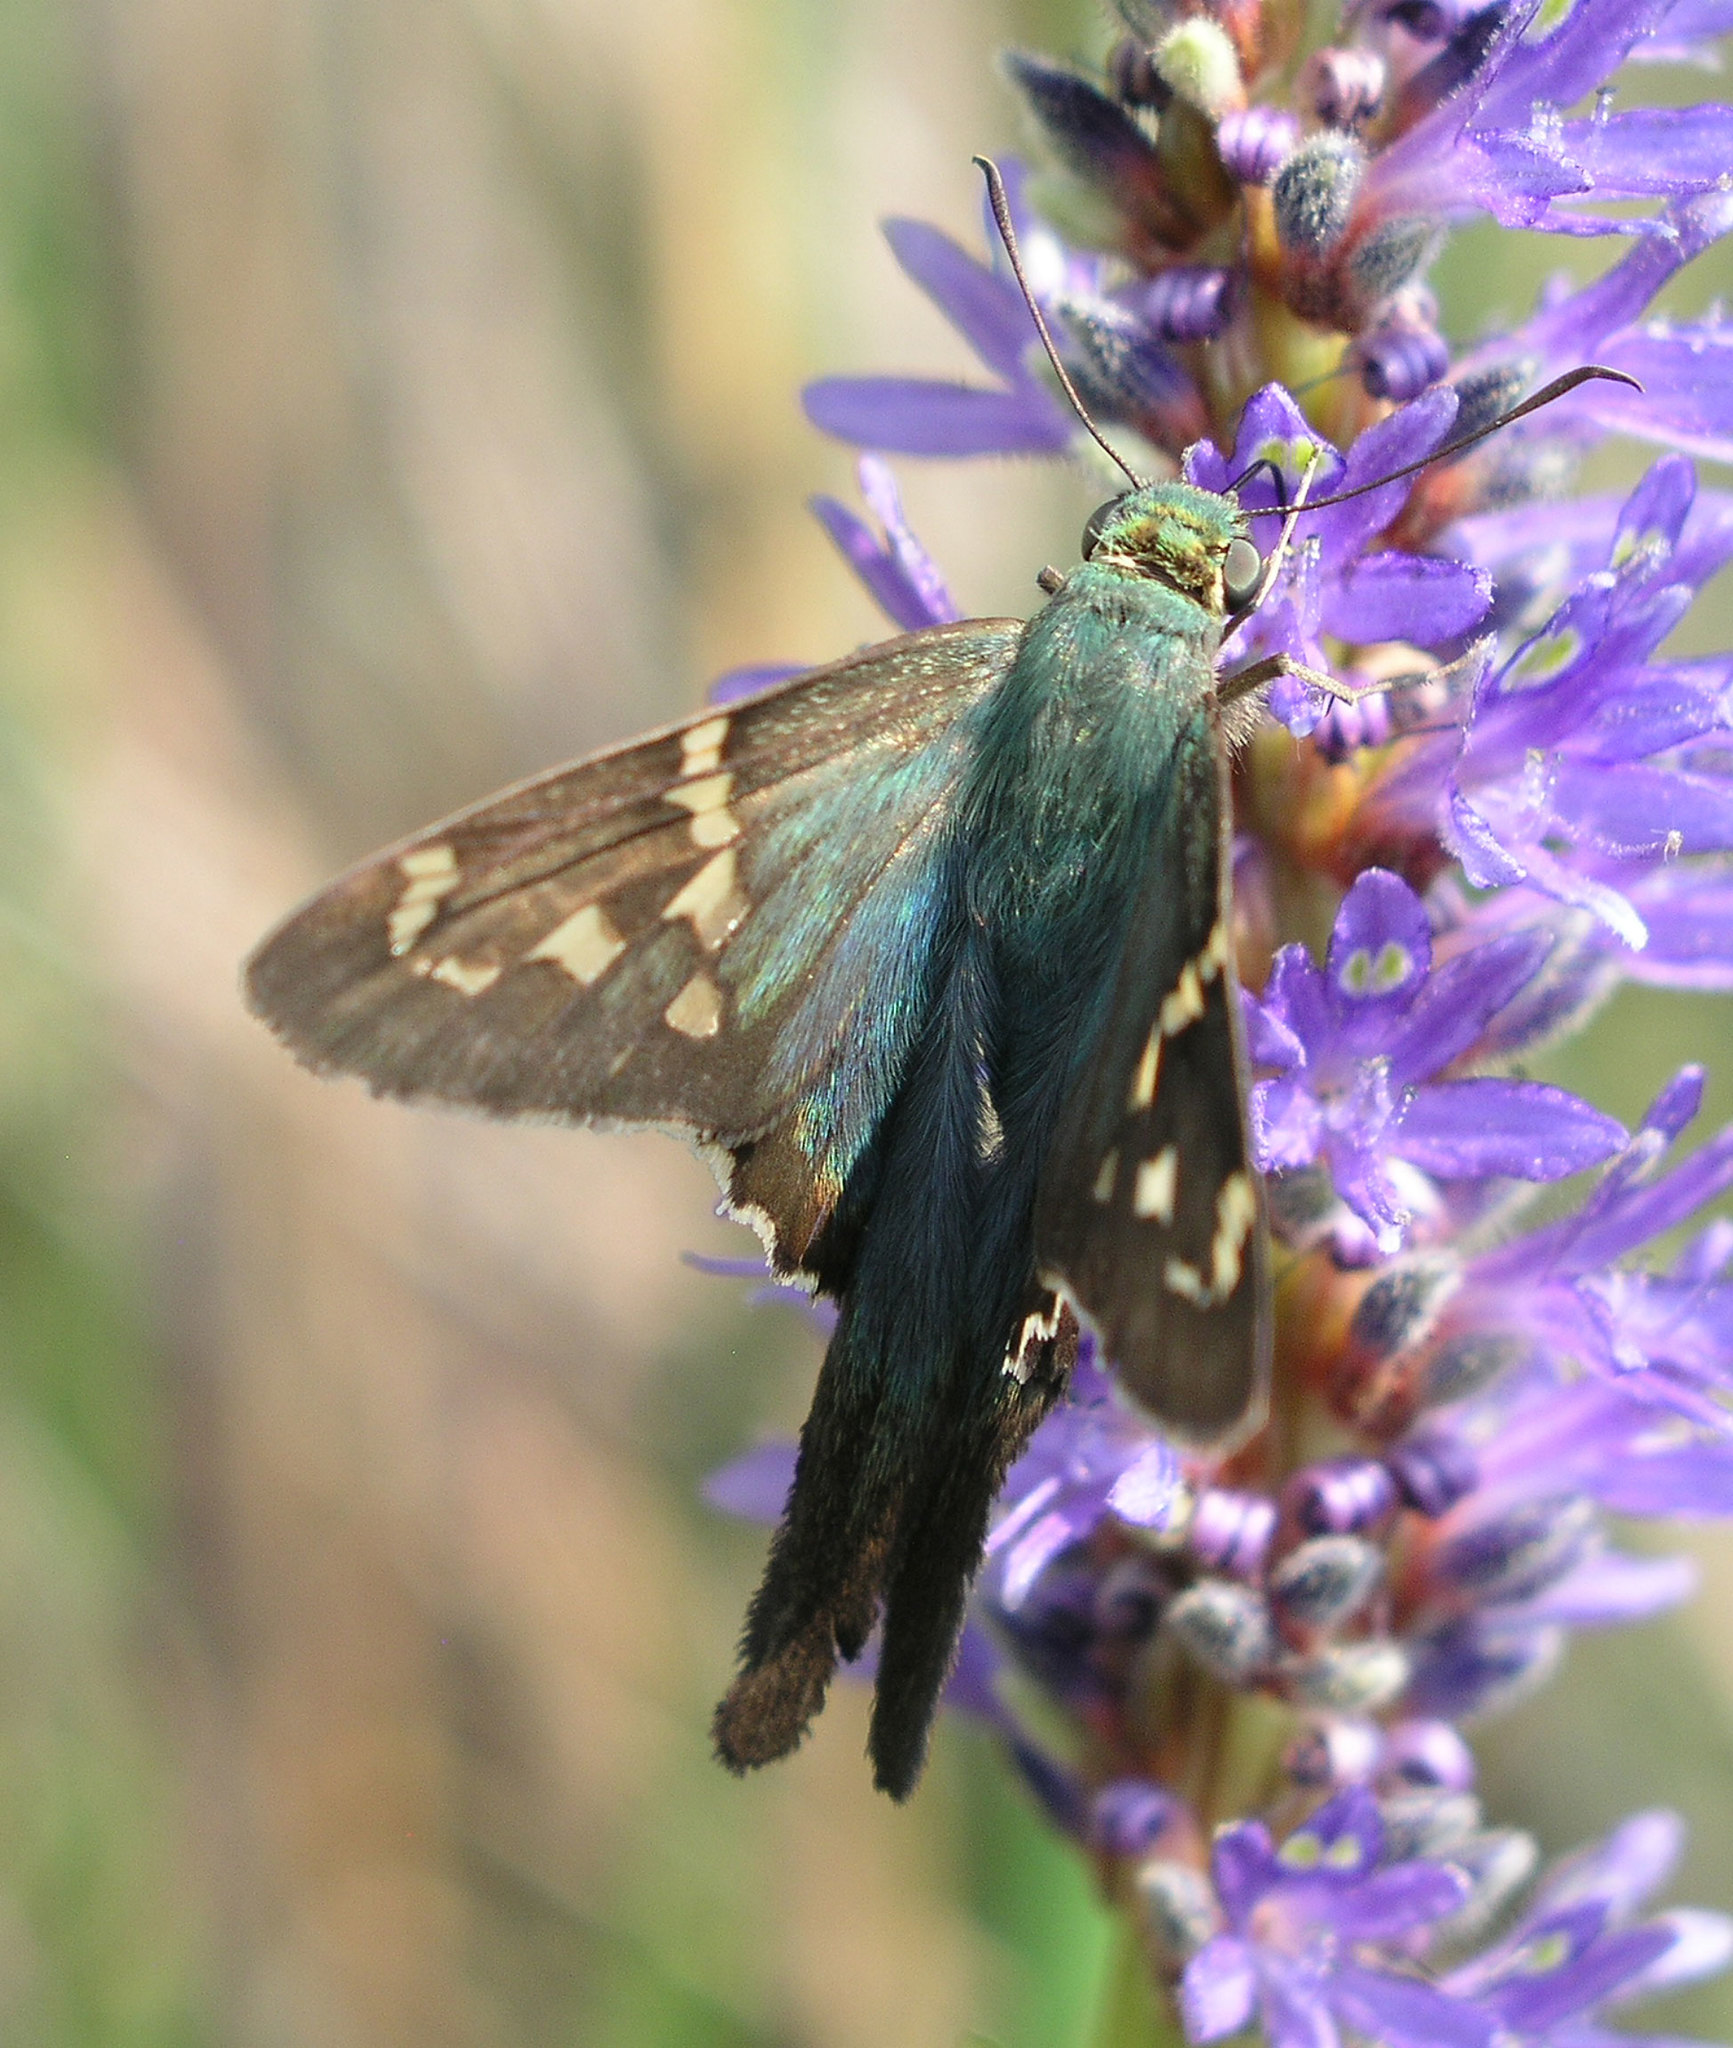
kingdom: Animalia
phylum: Arthropoda
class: Insecta
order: Lepidoptera
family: Hesperiidae
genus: Urbanus
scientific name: Urbanus proteus
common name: Long-tailed skipper
